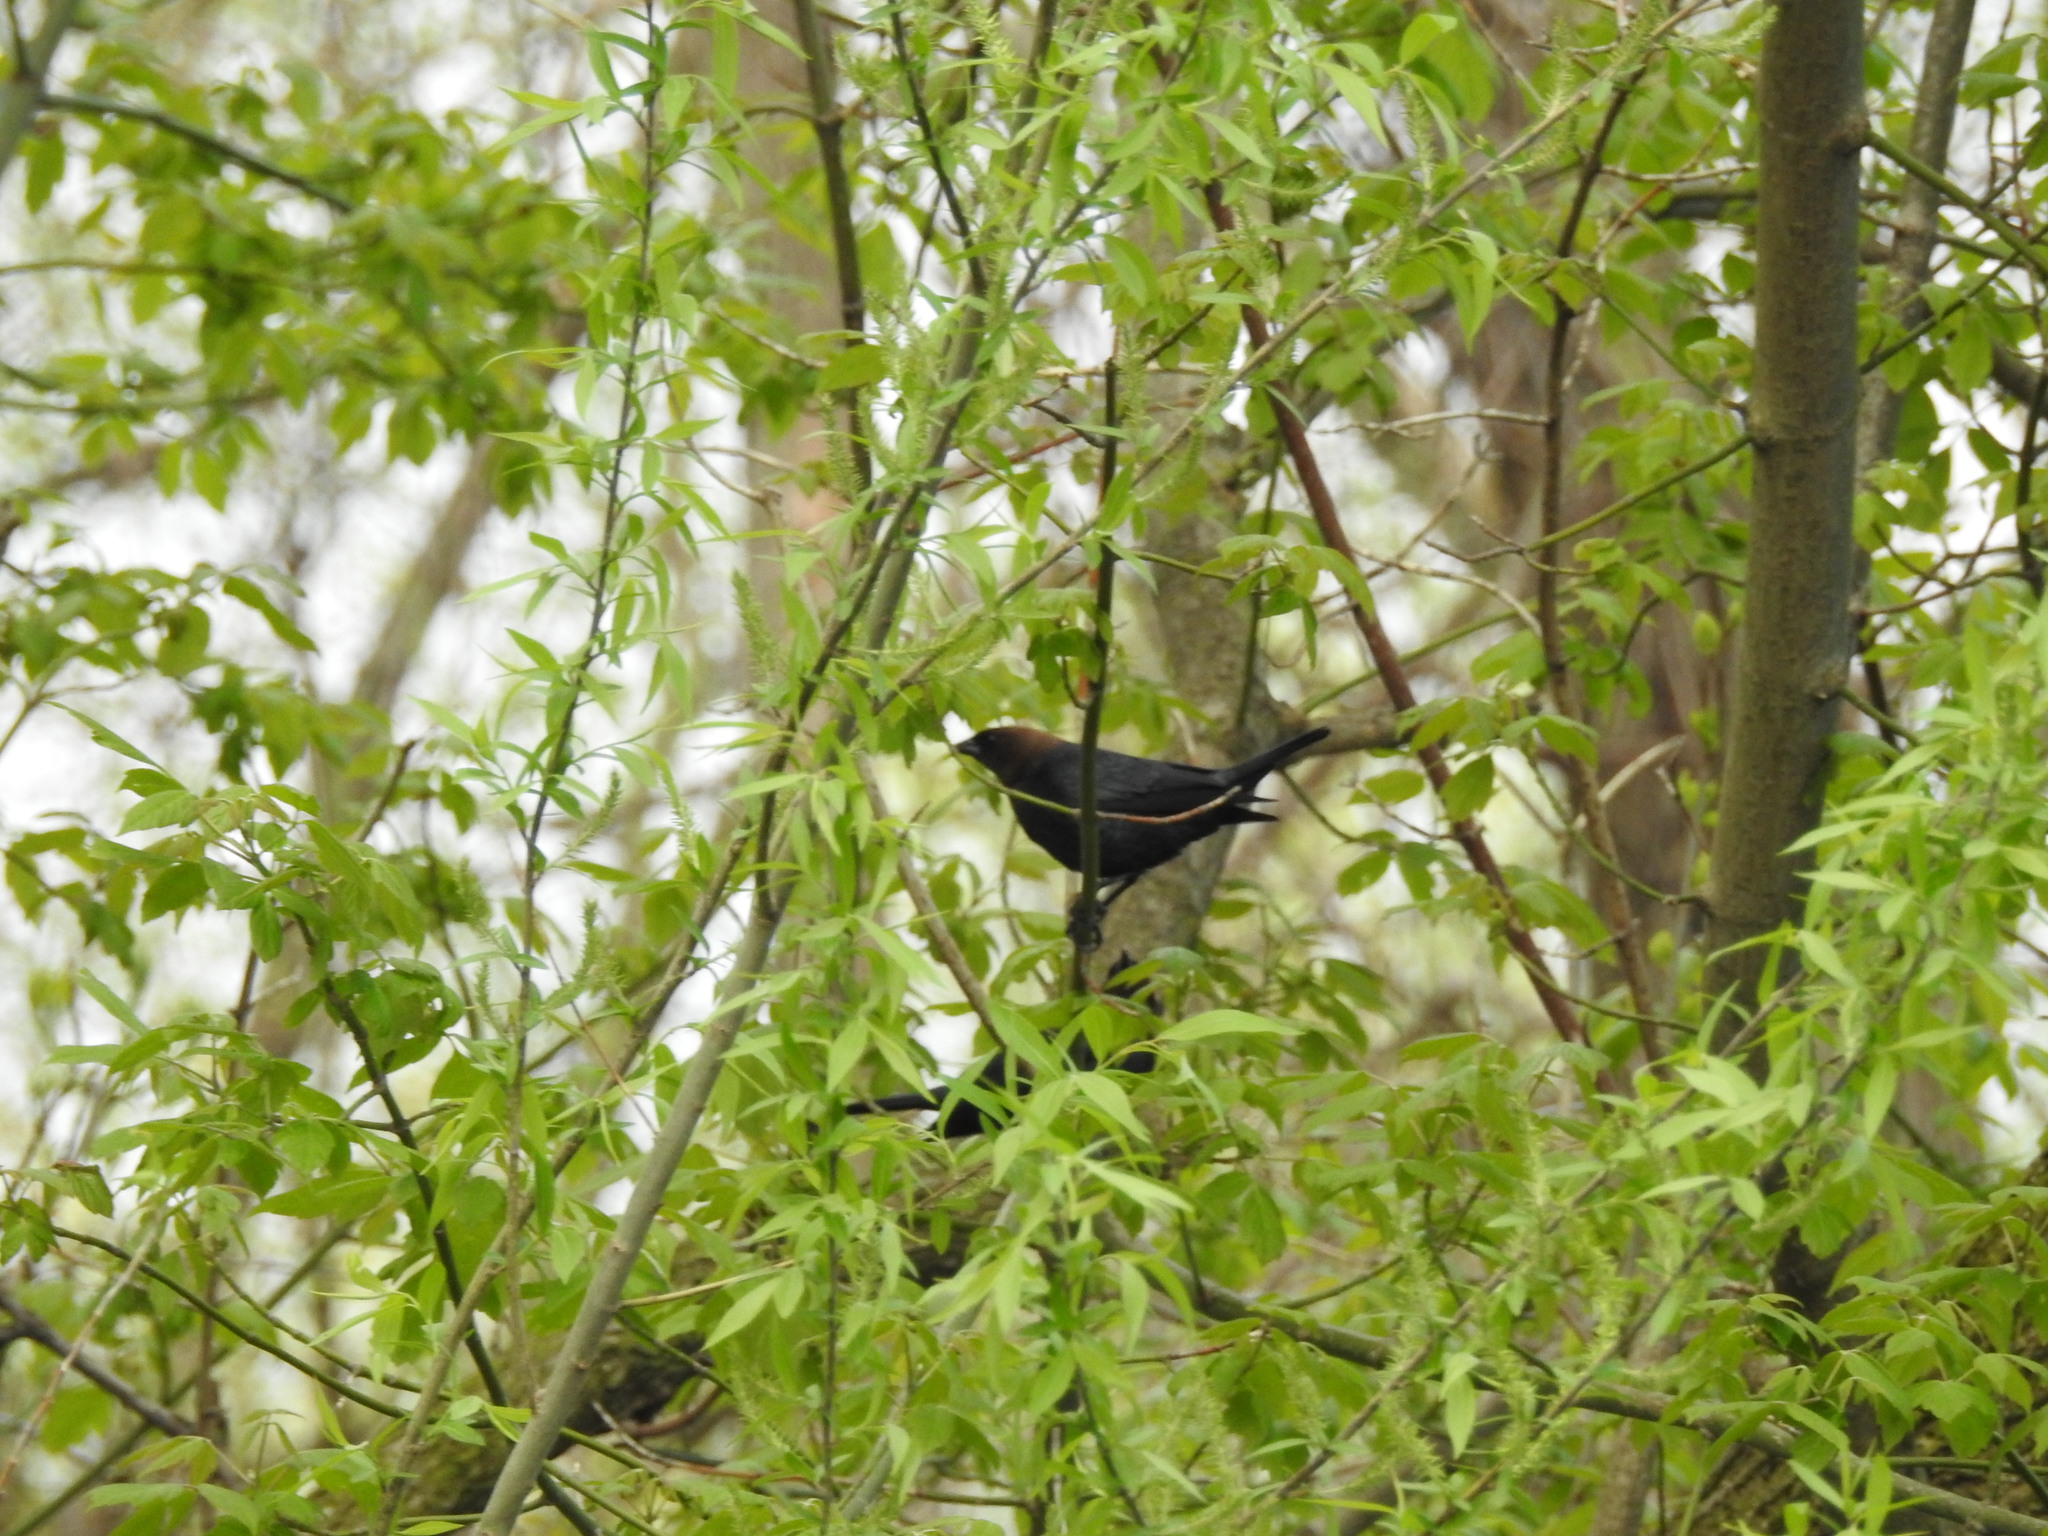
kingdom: Animalia
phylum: Chordata
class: Aves
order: Passeriformes
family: Icteridae
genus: Molothrus
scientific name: Molothrus ater
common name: Brown-headed cowbird
